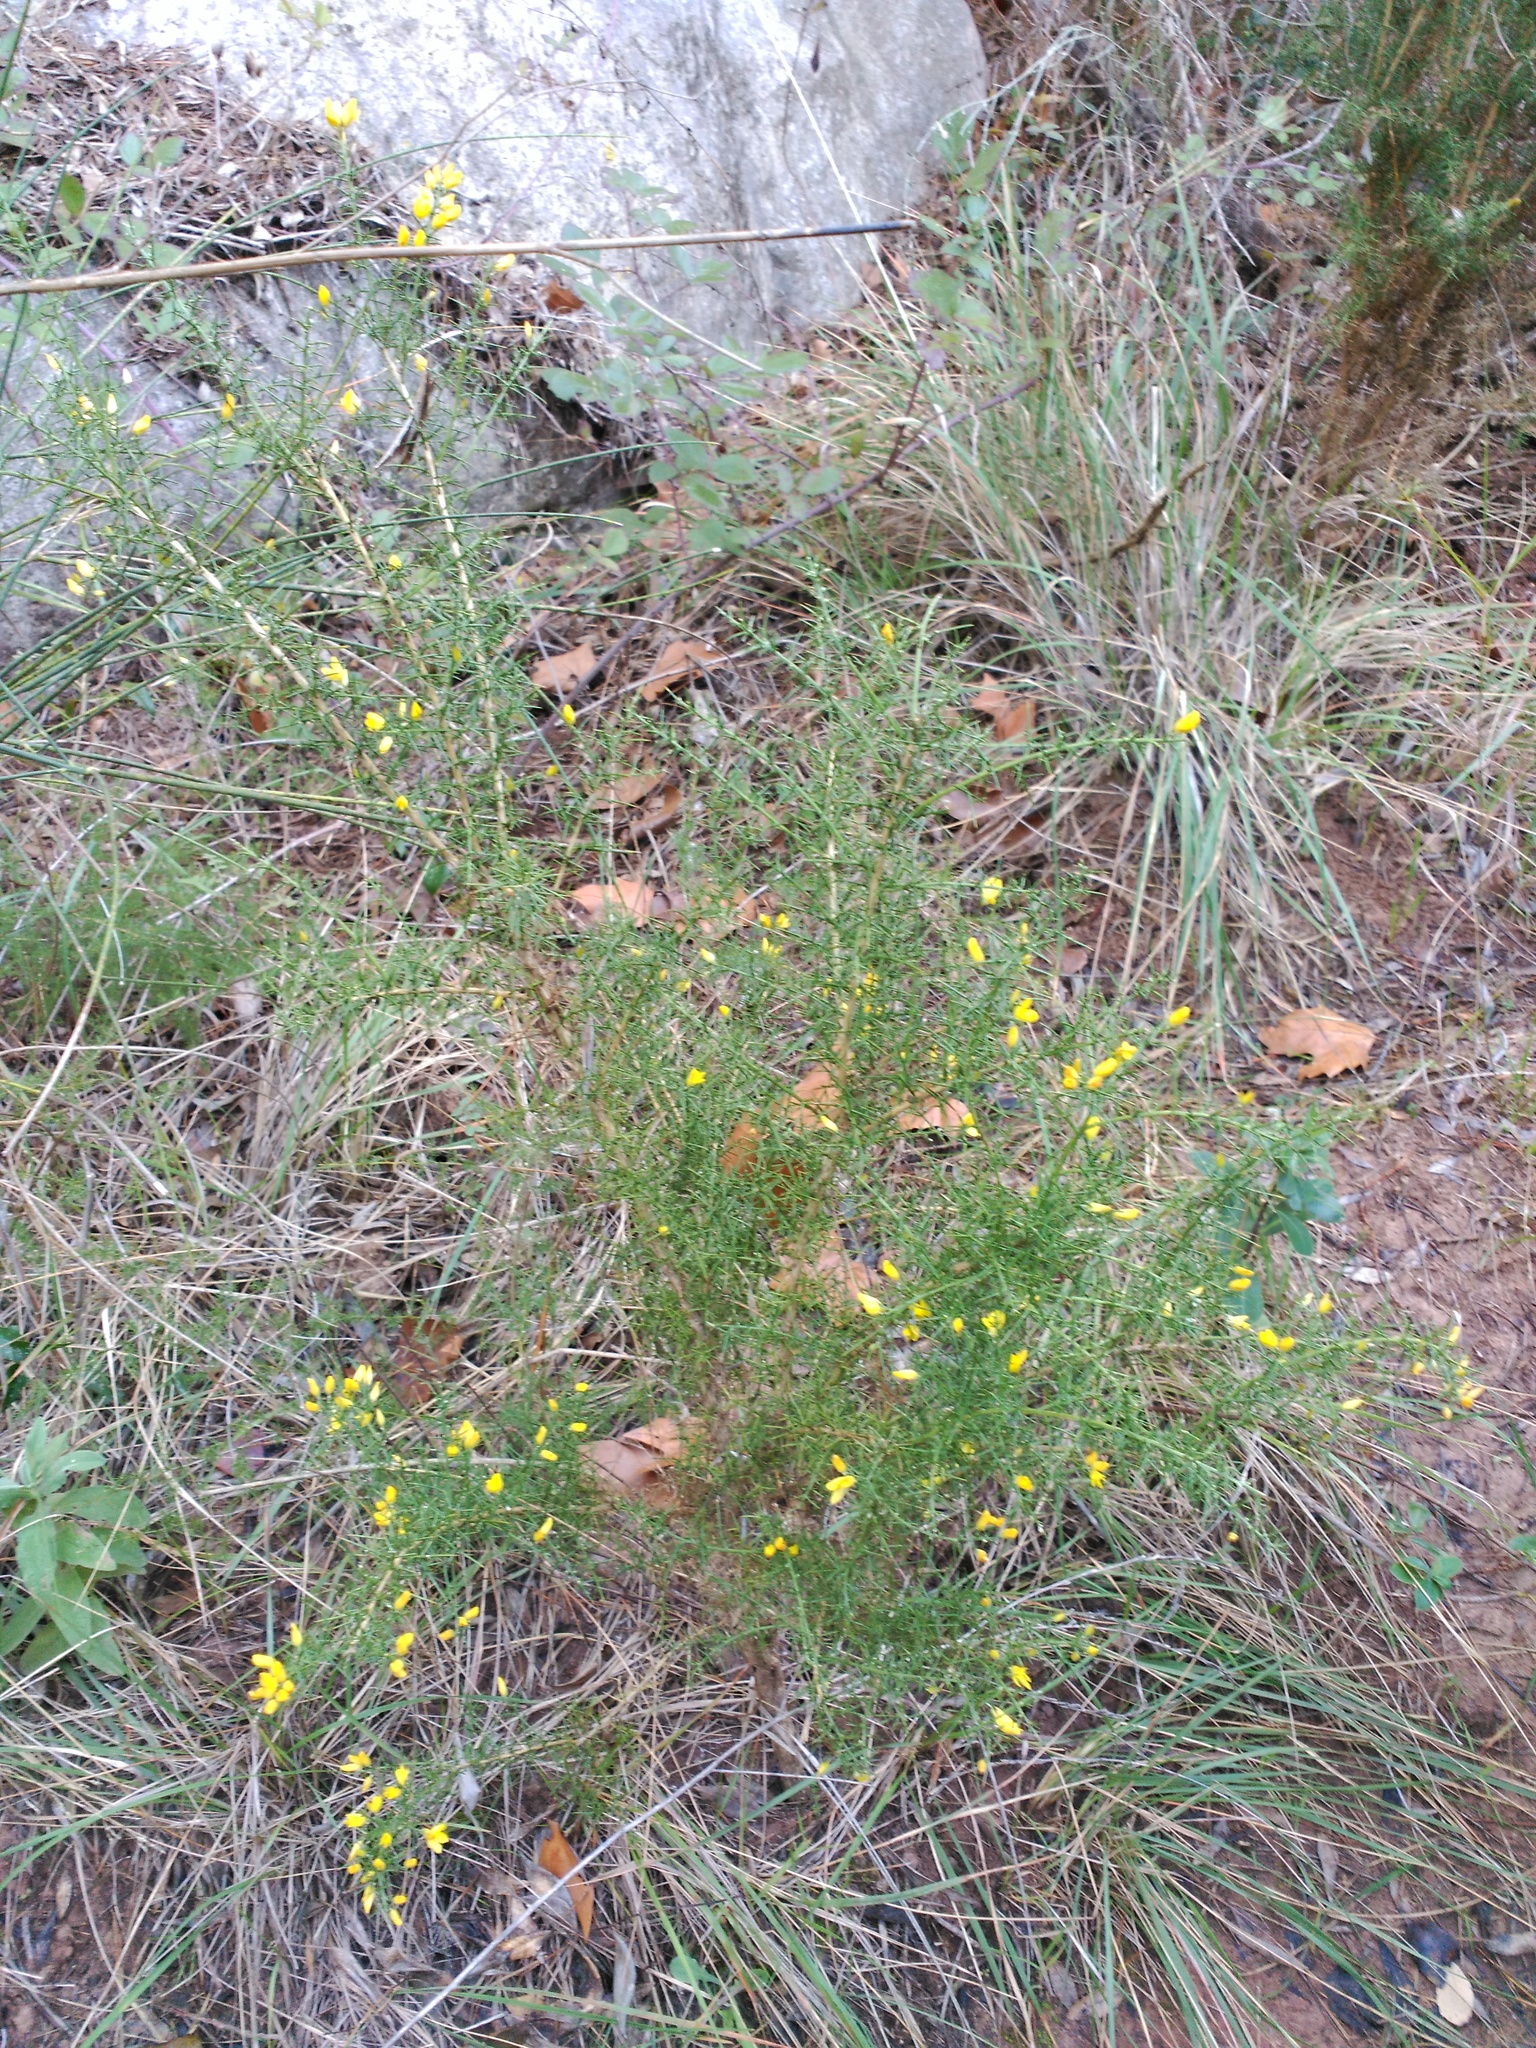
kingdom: Plantae
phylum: Tracheophyta
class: Magnoliopsida
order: Fabales
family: Fabaceae
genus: Ulex
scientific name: Ulex parviflorus
